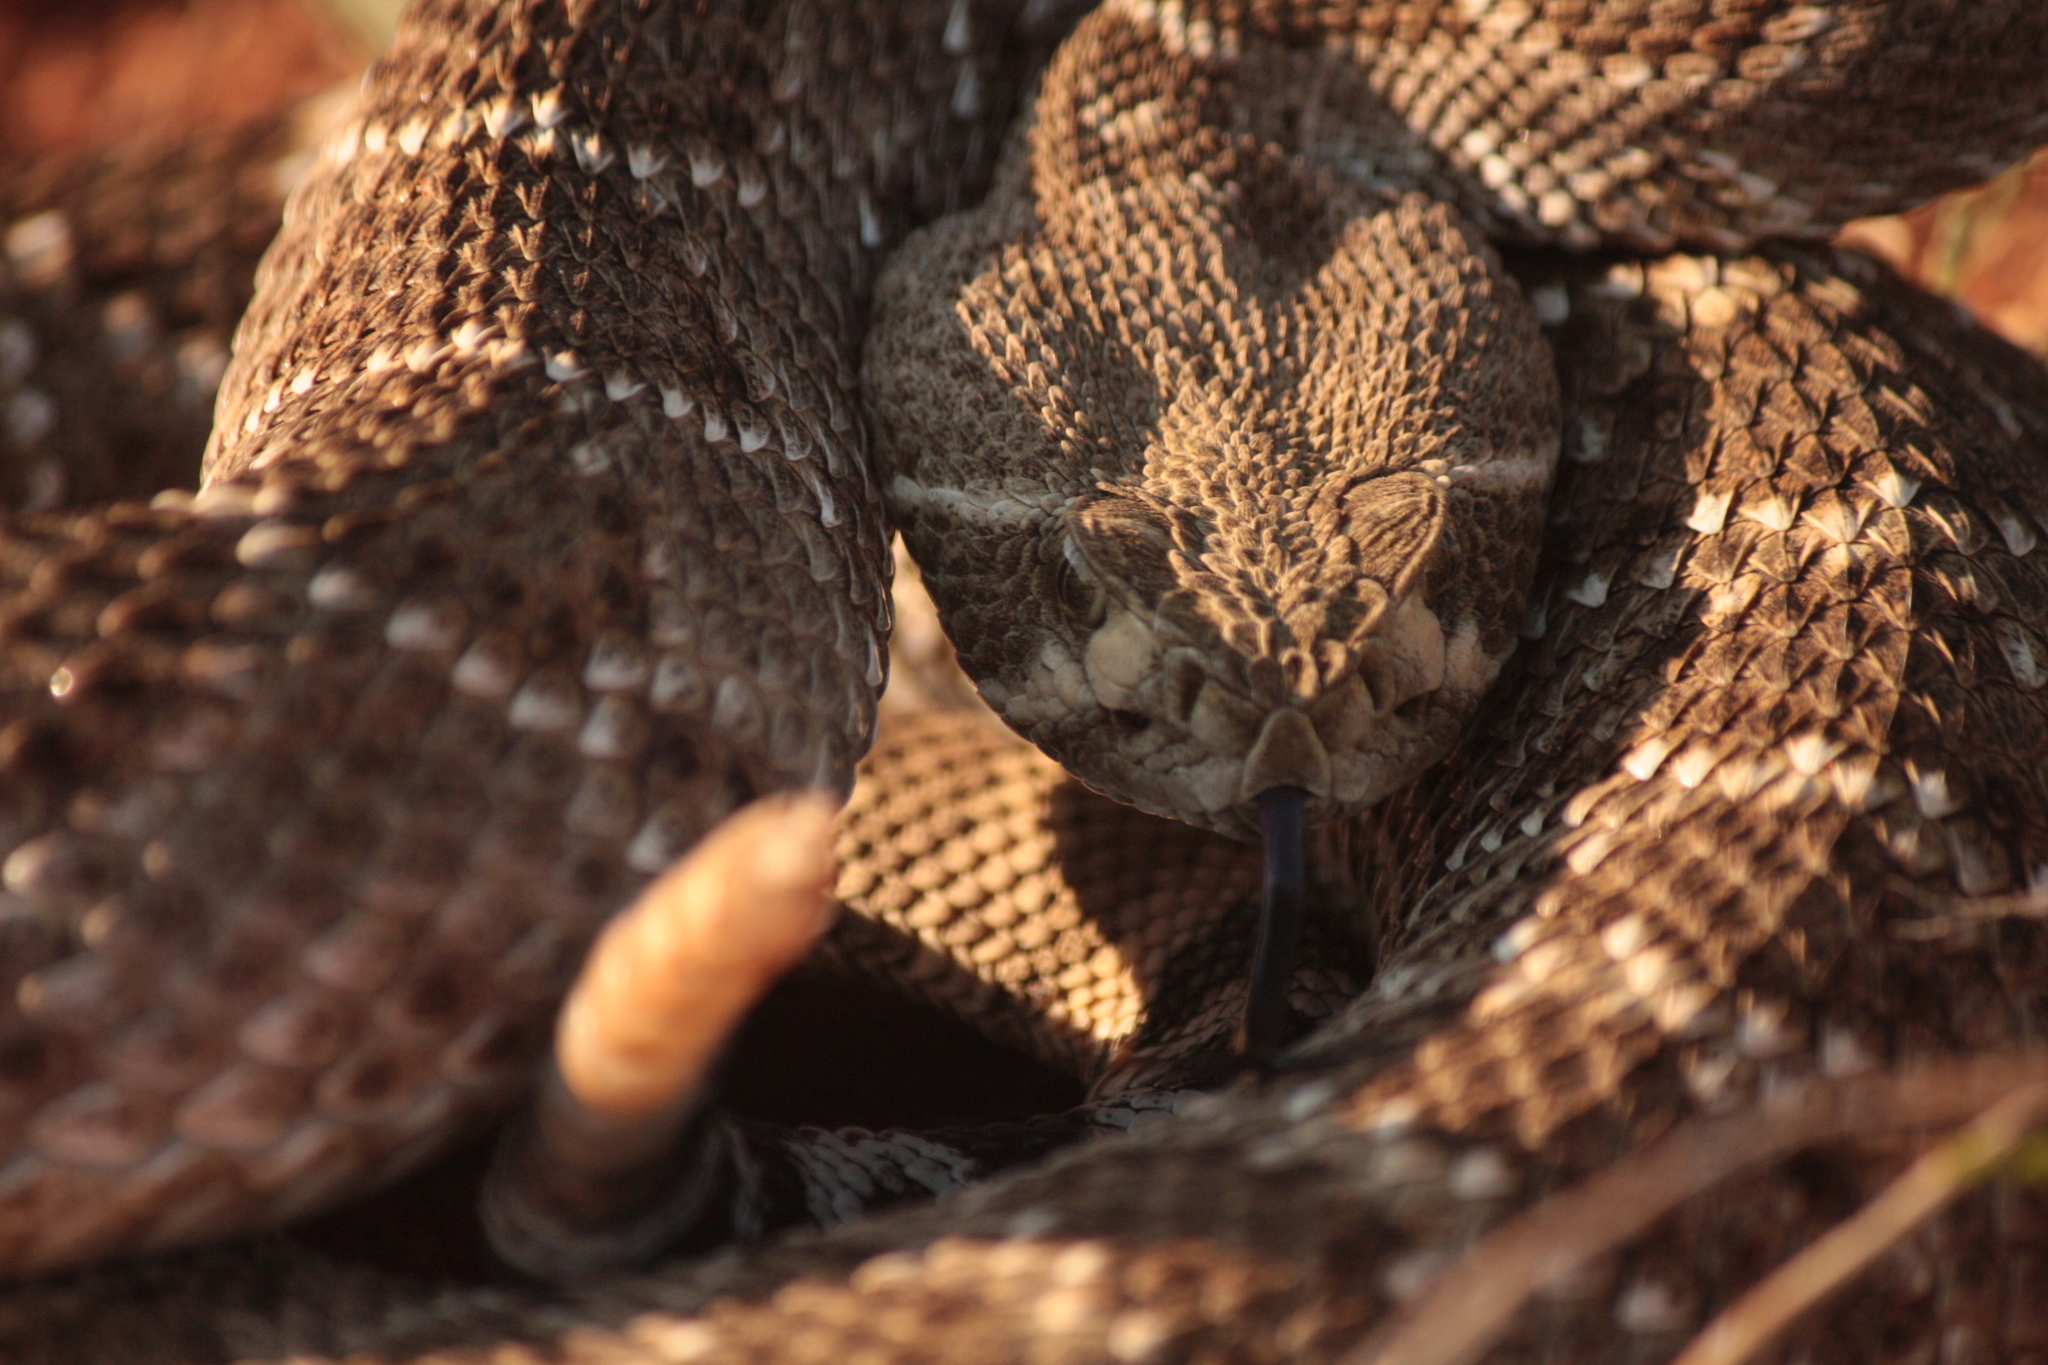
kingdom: Animalia
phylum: Chordata
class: Squamata
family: Viperidae
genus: Crotalus
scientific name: Crotalus atrox
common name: Western diamond-backed rattlesnake
